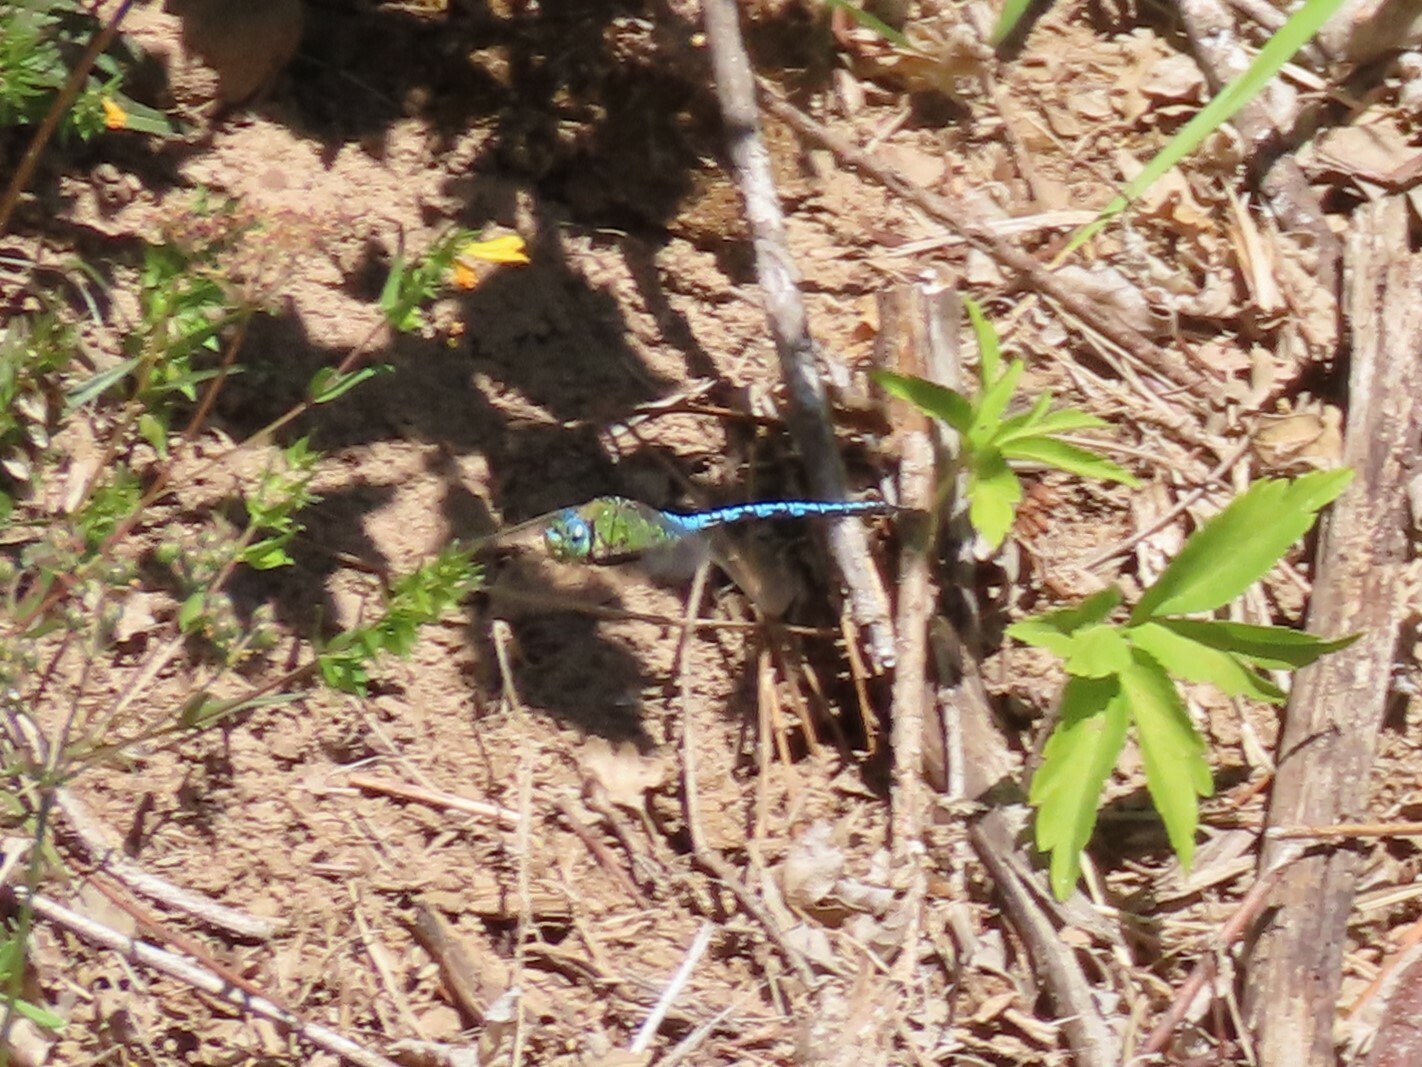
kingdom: Animalia
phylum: Arthropoda
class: Insecta
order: Odonata
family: Aeshnidae
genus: Anax
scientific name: Anax imperator
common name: Emperor dragonfly
